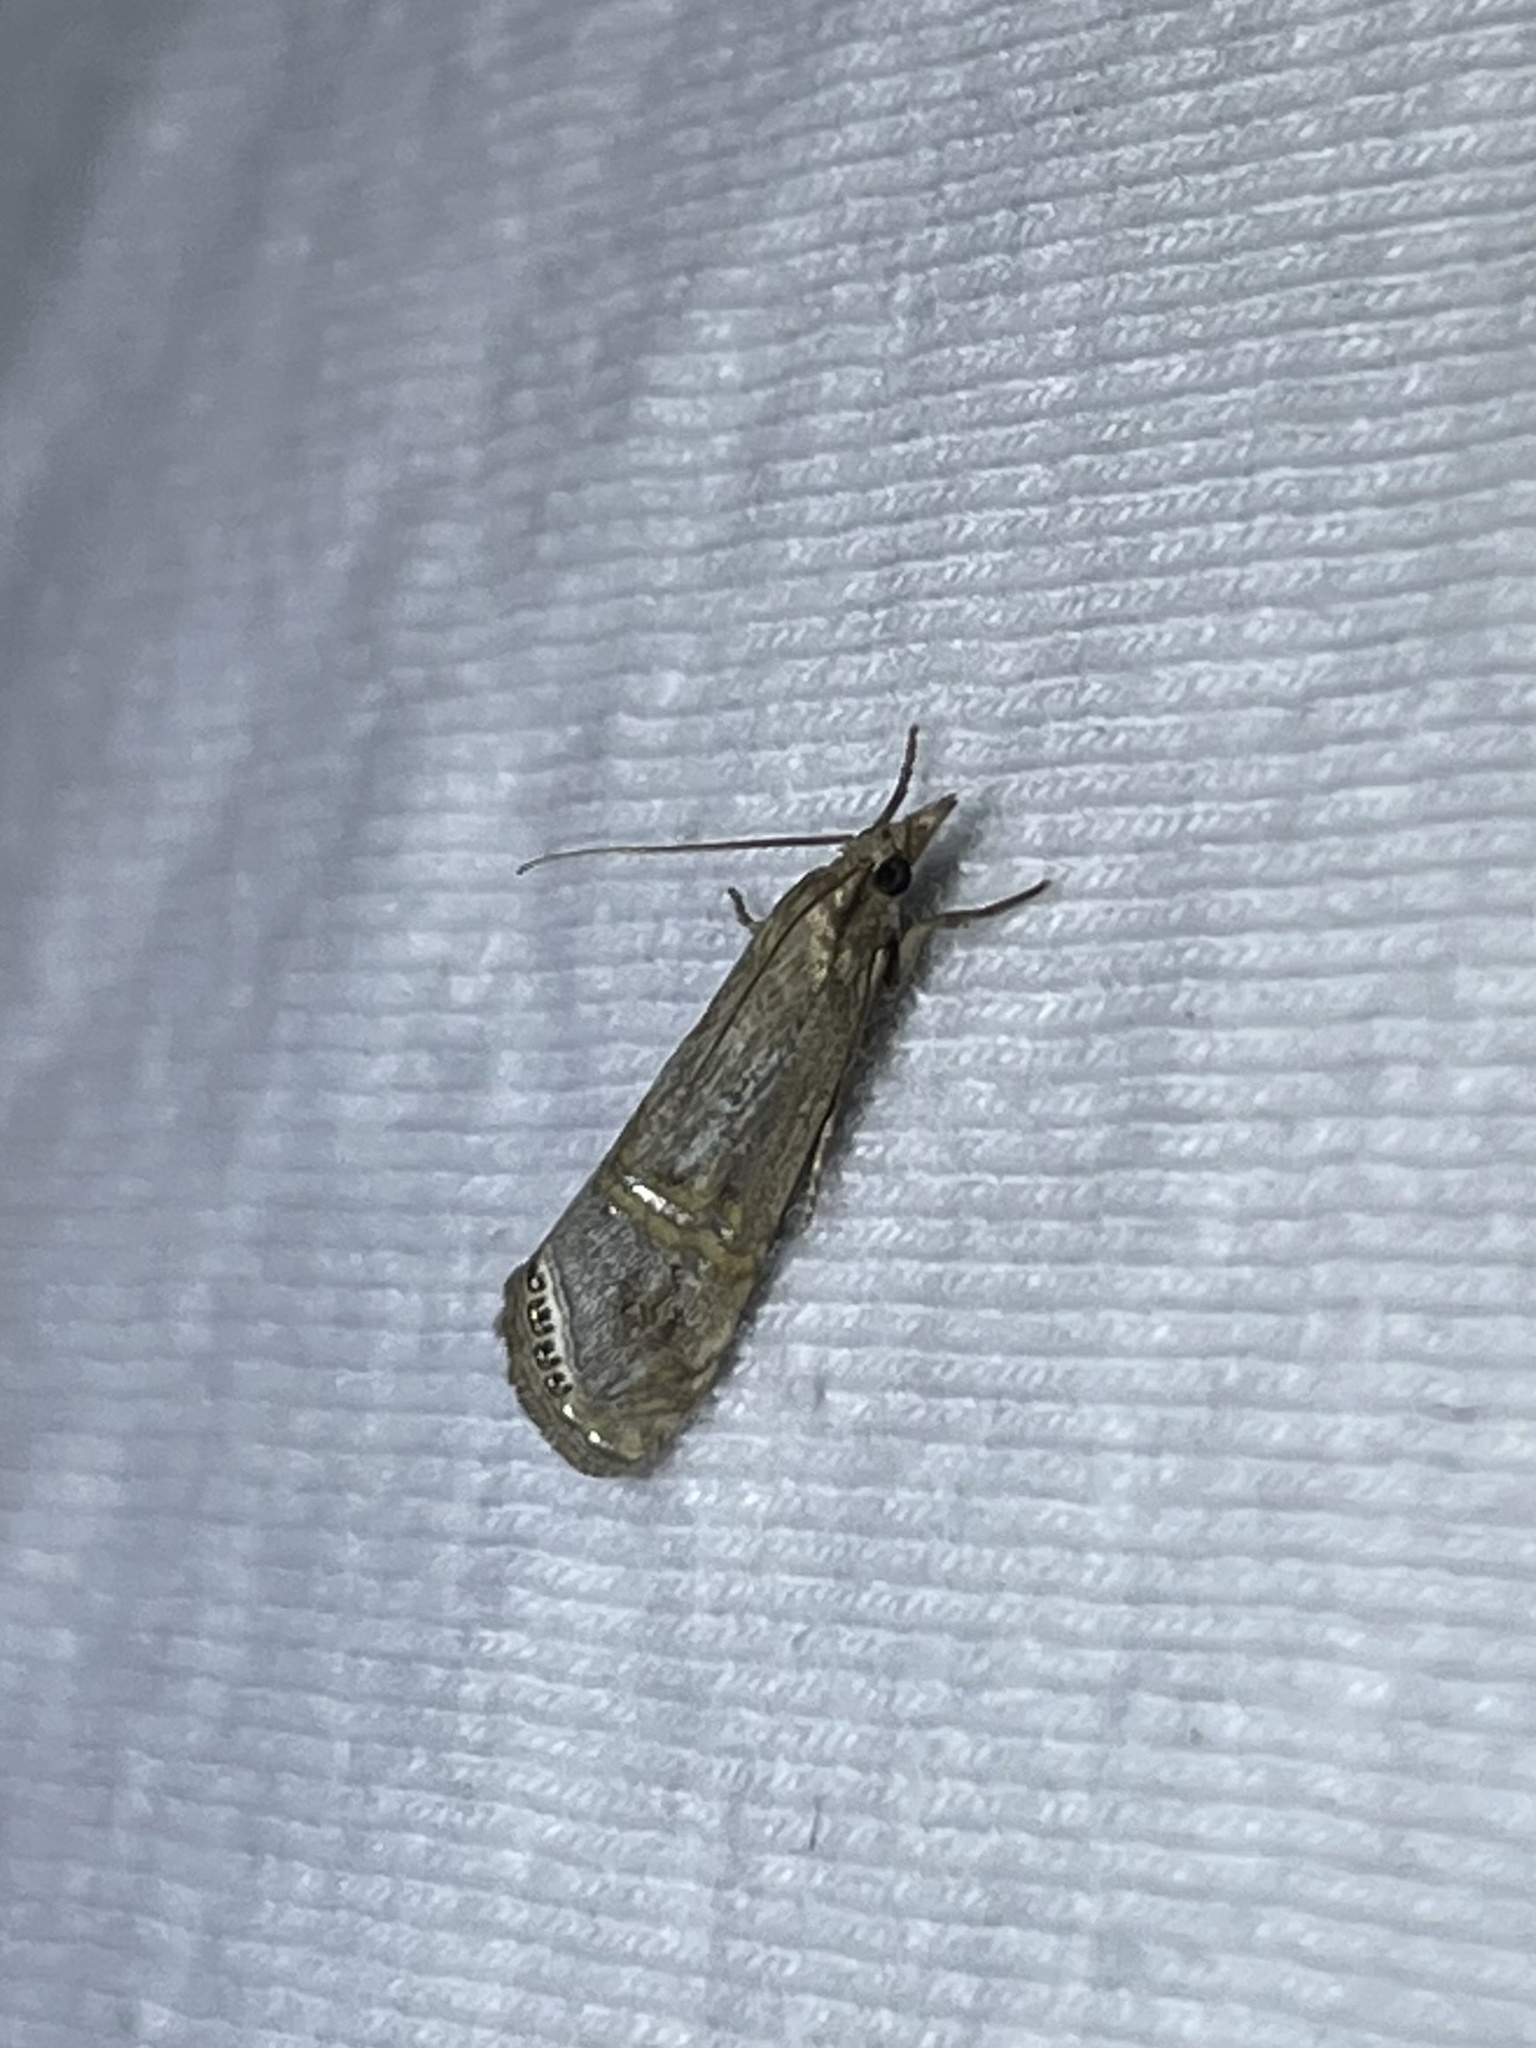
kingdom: Animalia
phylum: Arthropoda
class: Insecta
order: Lepidoptera
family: Crambidae
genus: Euchromius
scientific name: Euchromius ocellea
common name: Necklace veneer moth
